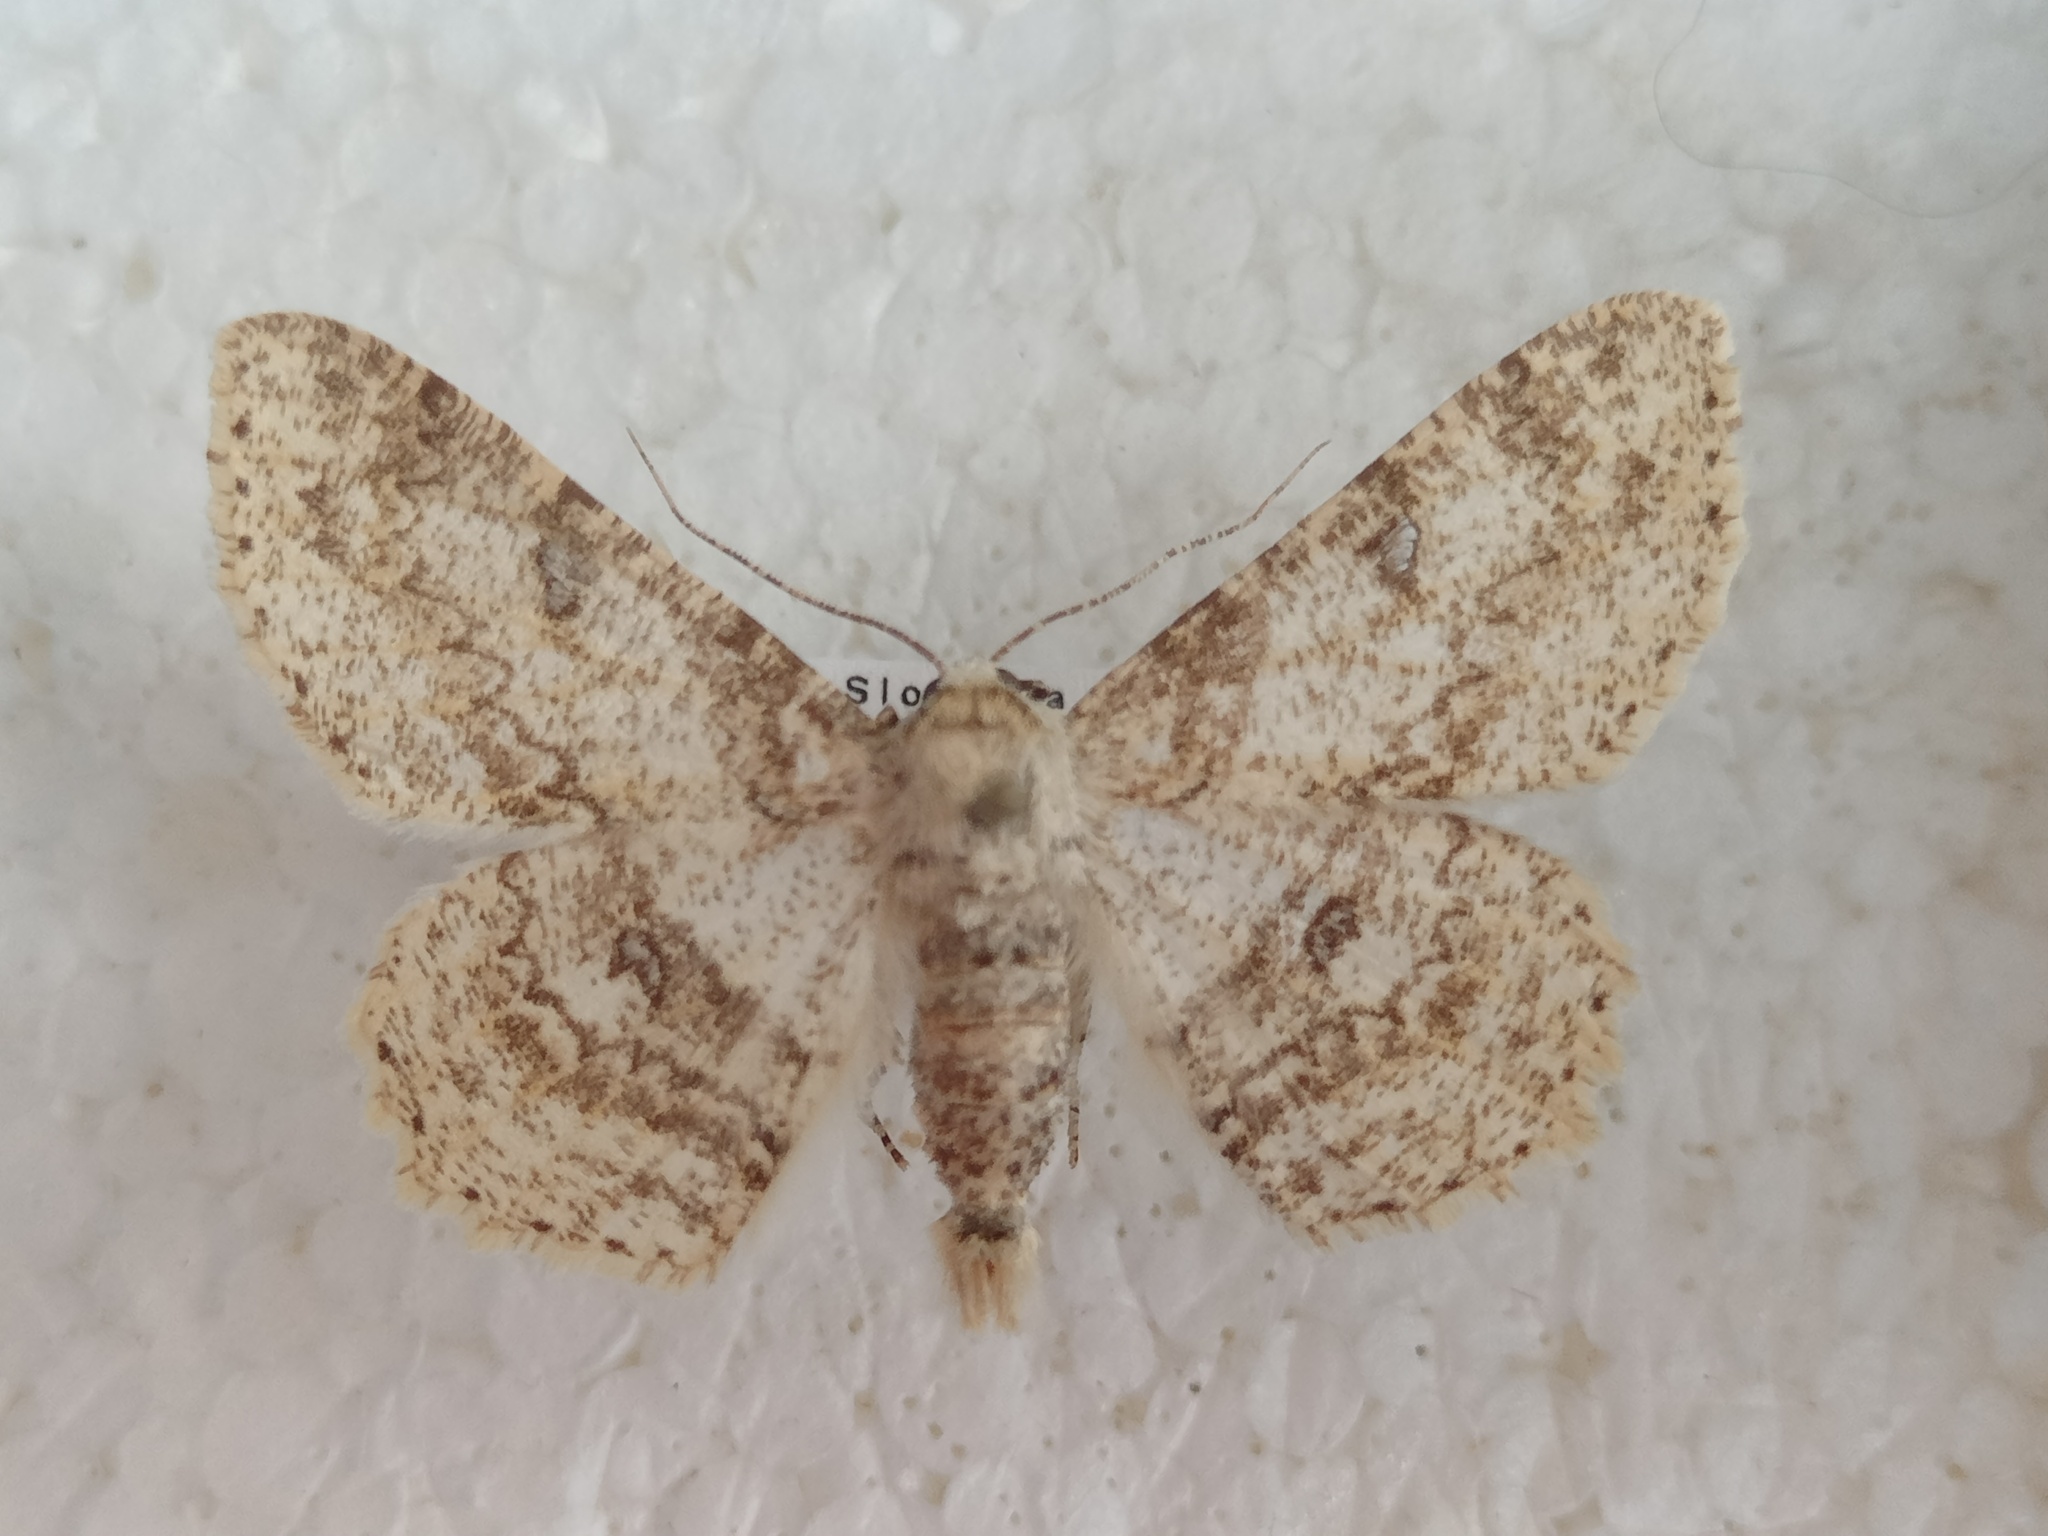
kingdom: Animalia
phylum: Arthropoda
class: Insecta
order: Lepidoptera
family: Geometridae
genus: Ascotis
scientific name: Ascotis selenaria
